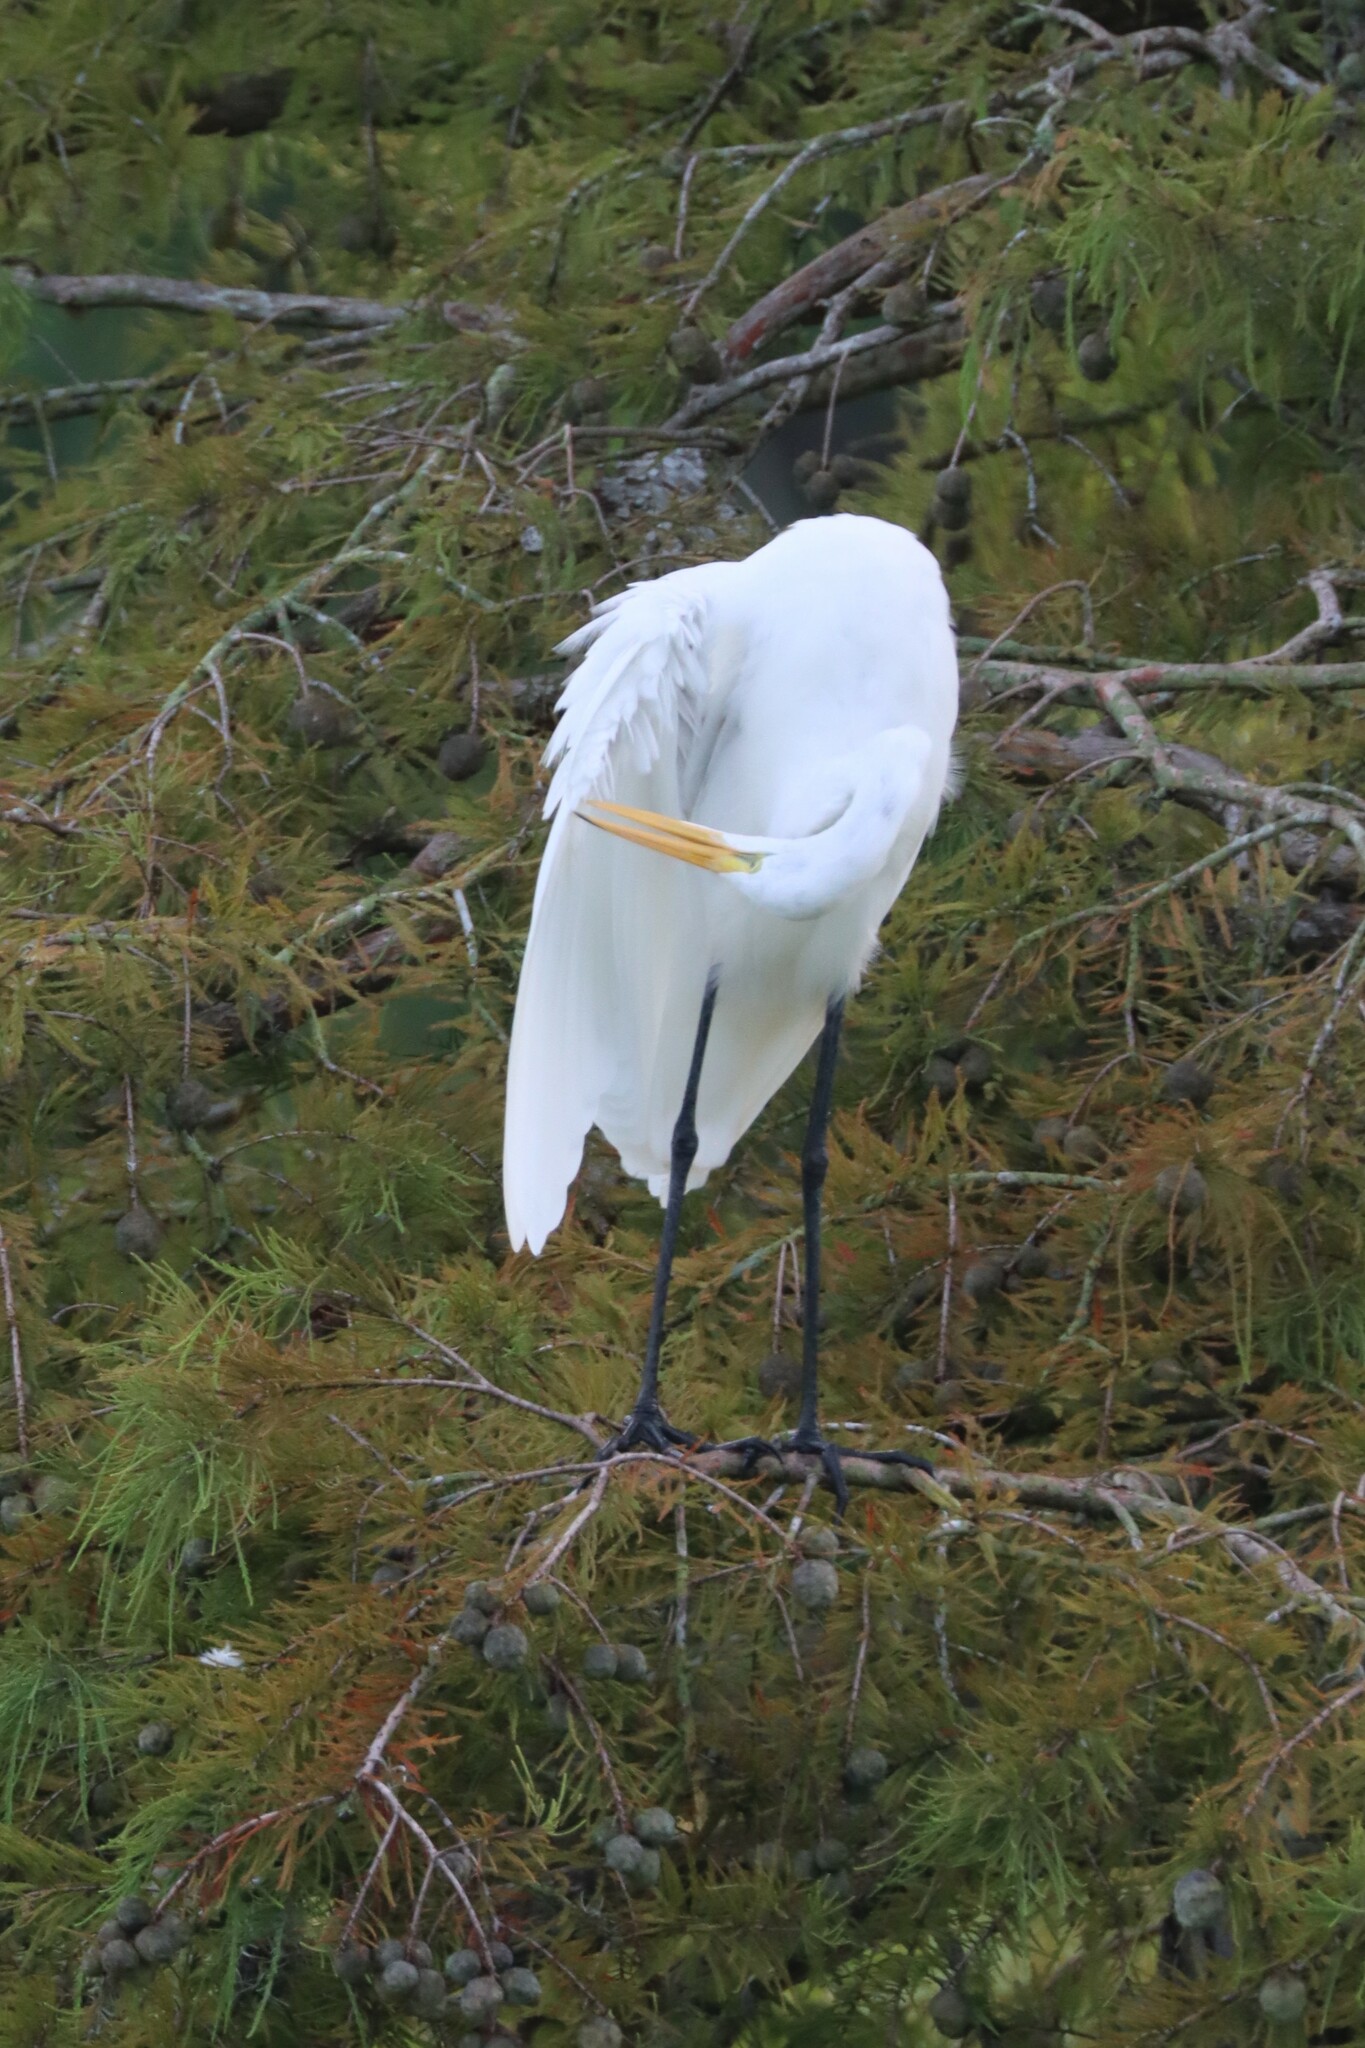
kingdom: Animalia
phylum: Chordata
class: Aves
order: Pelecaniformes
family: Ardeidae
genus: Ardea
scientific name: Ardea alba
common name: Great egret
